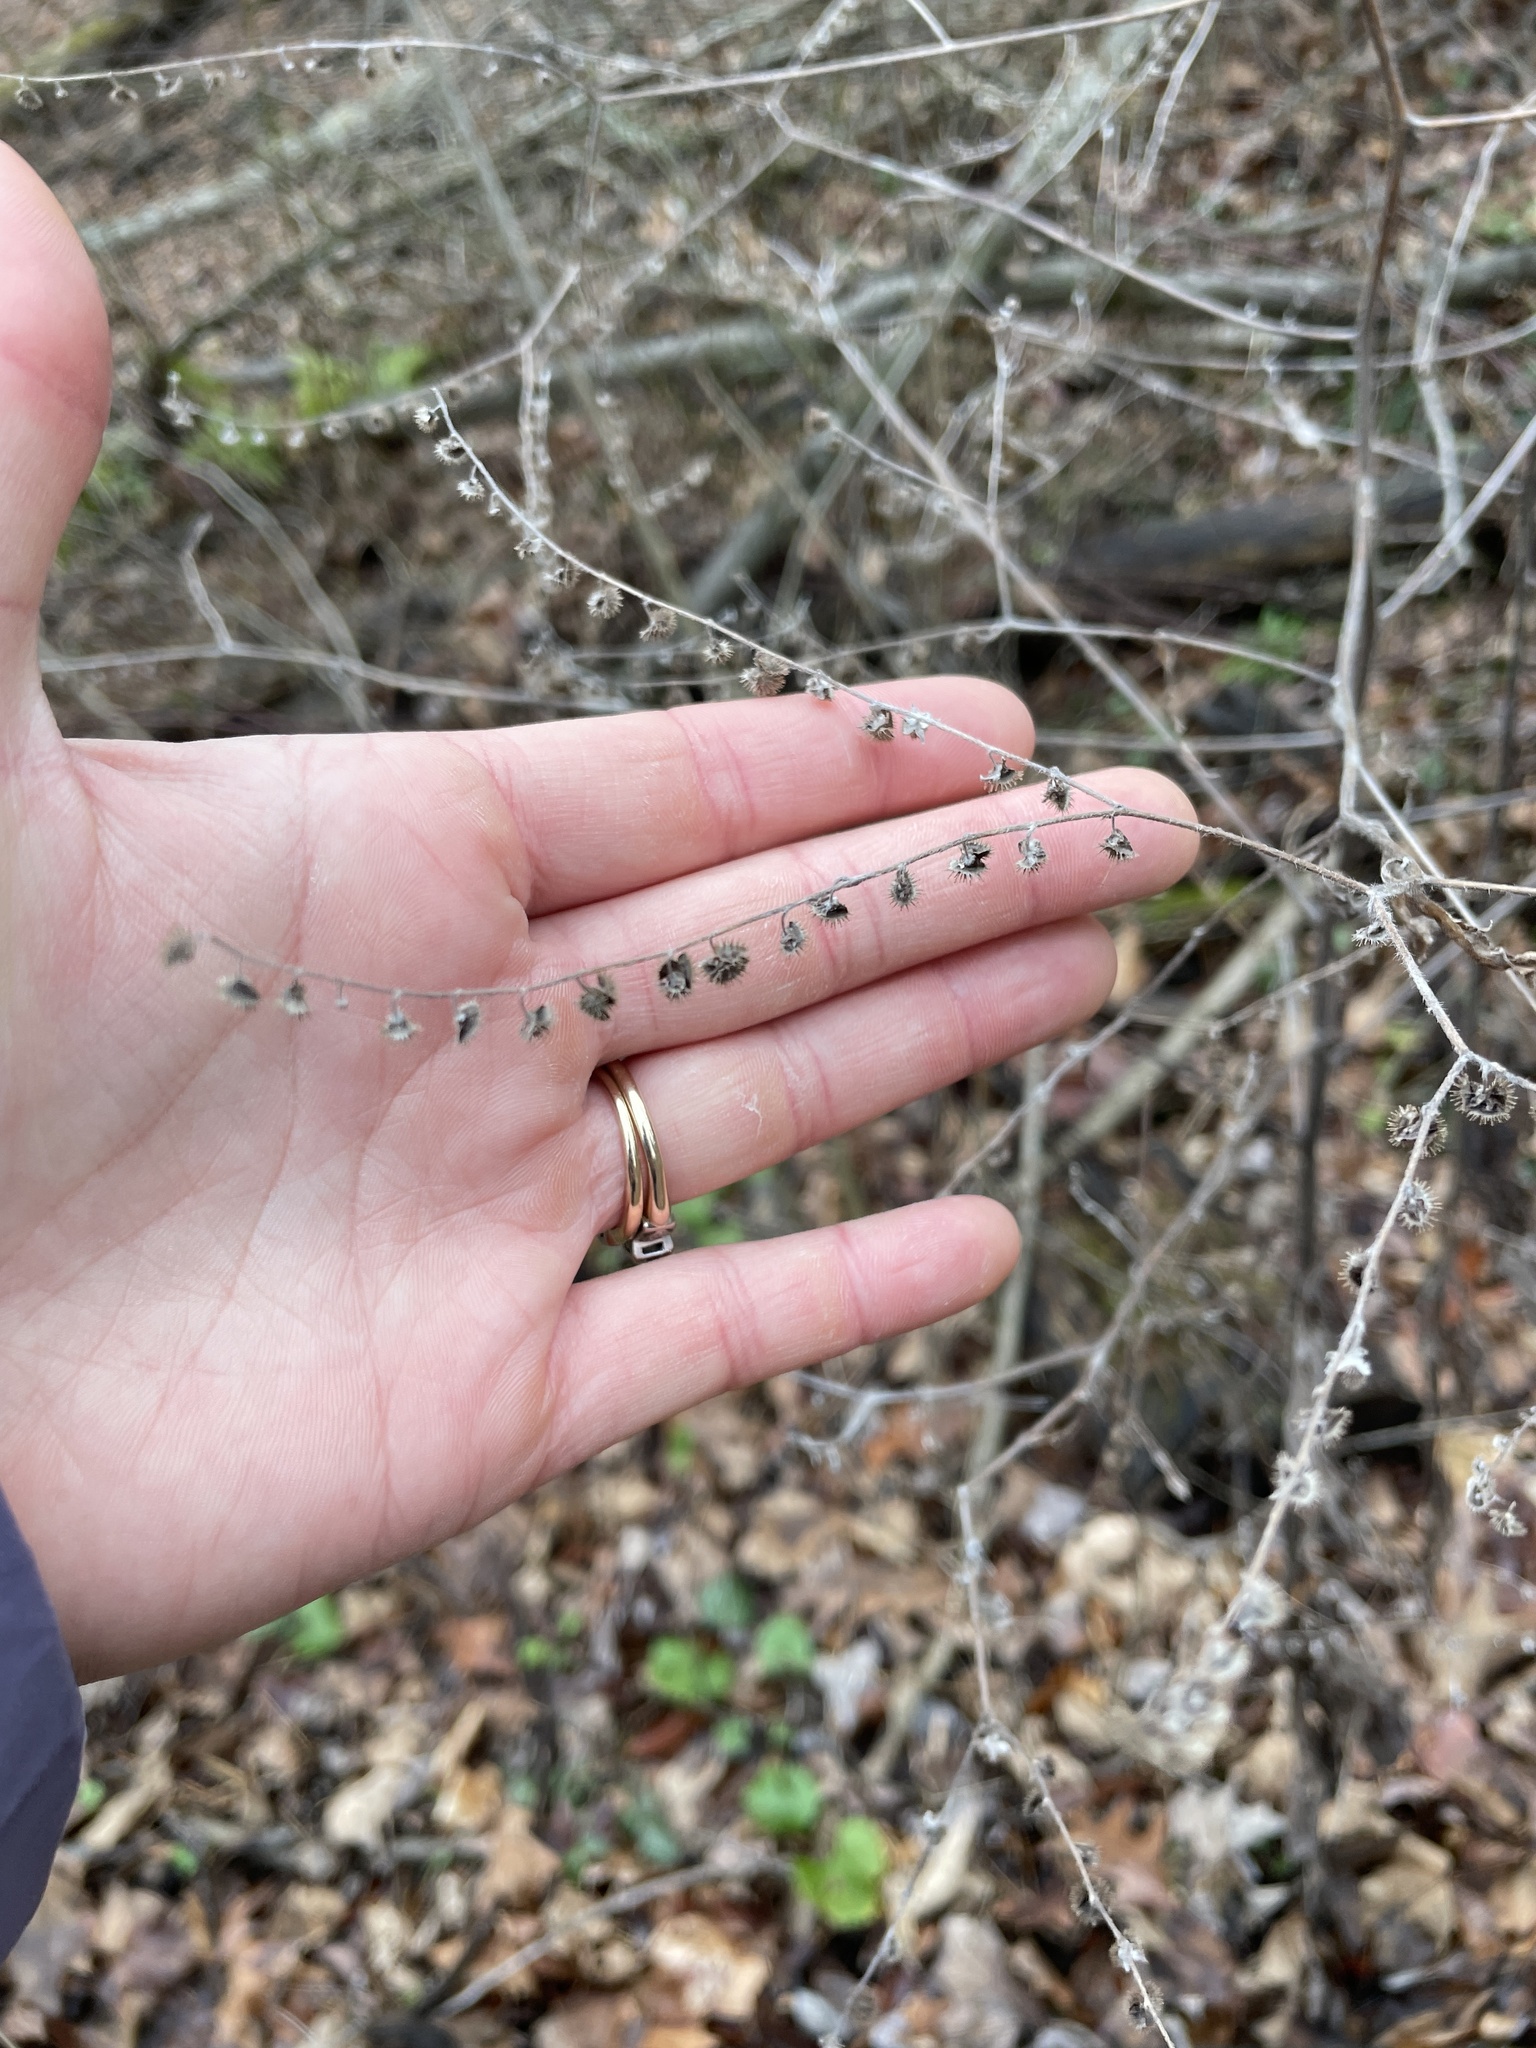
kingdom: Plantae
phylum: Tracheophyta
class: Magnoliopsida
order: Boraginales
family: Boraginaceae
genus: Hackelia
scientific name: Hackelia virginiana
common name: Beggar's-lice
